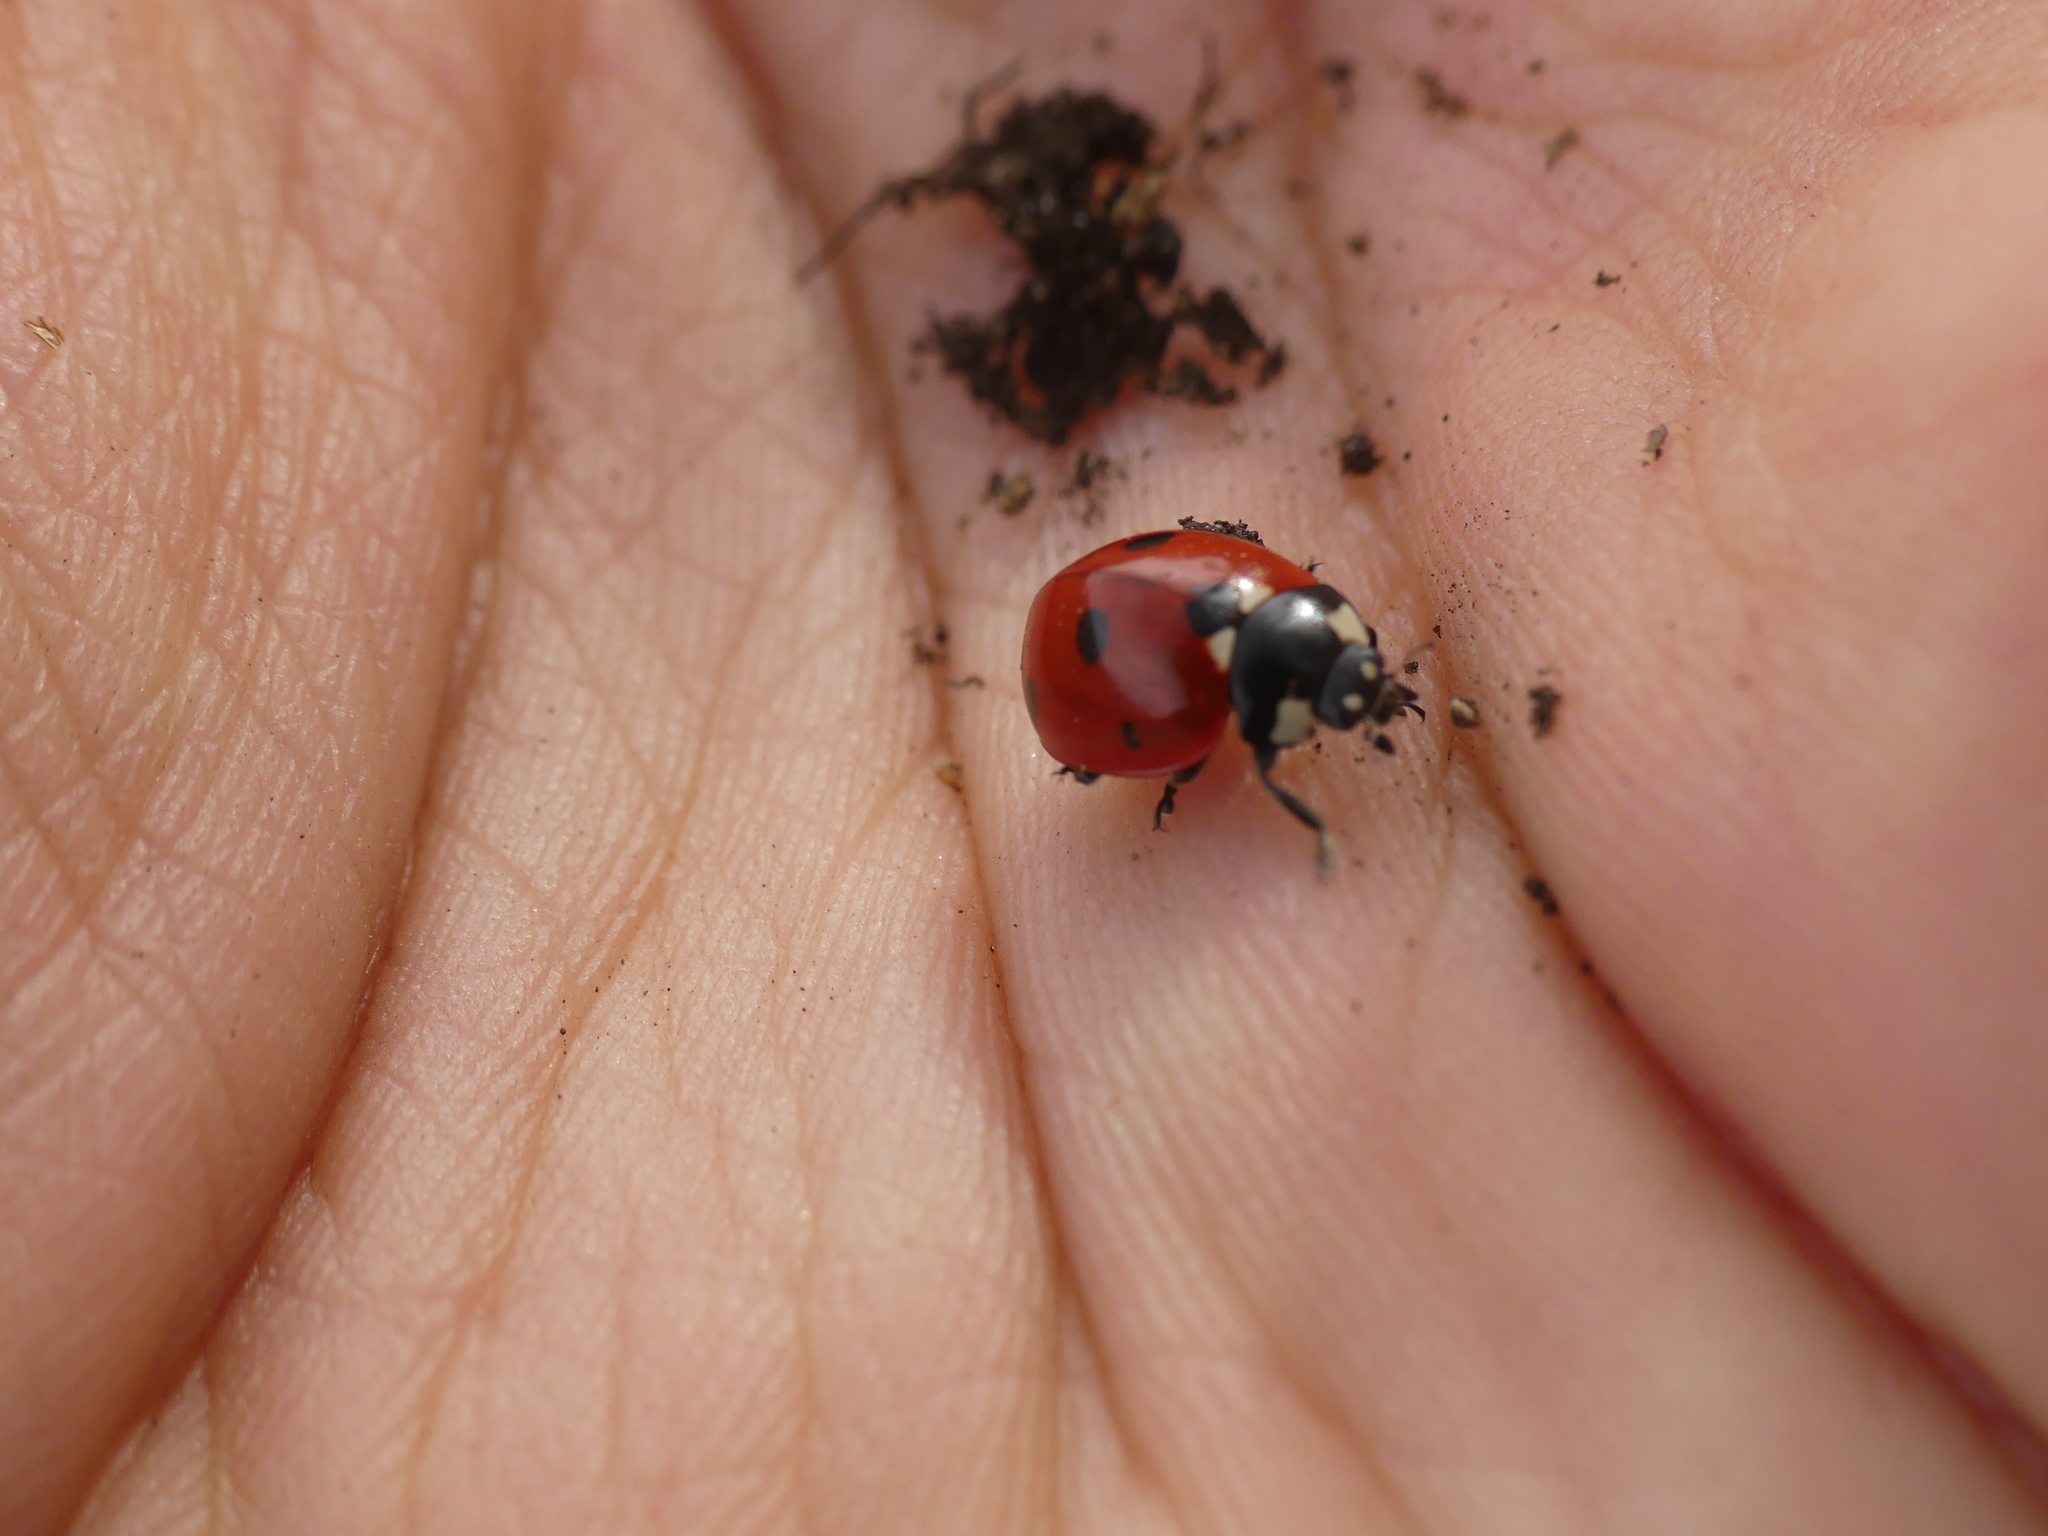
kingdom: Animalia
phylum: Arthropoda
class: Insecta
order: Coleoptera
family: Coccinellidae
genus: Coccinella
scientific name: Coccinella septempunctata
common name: Sevenspotted lady beetle
